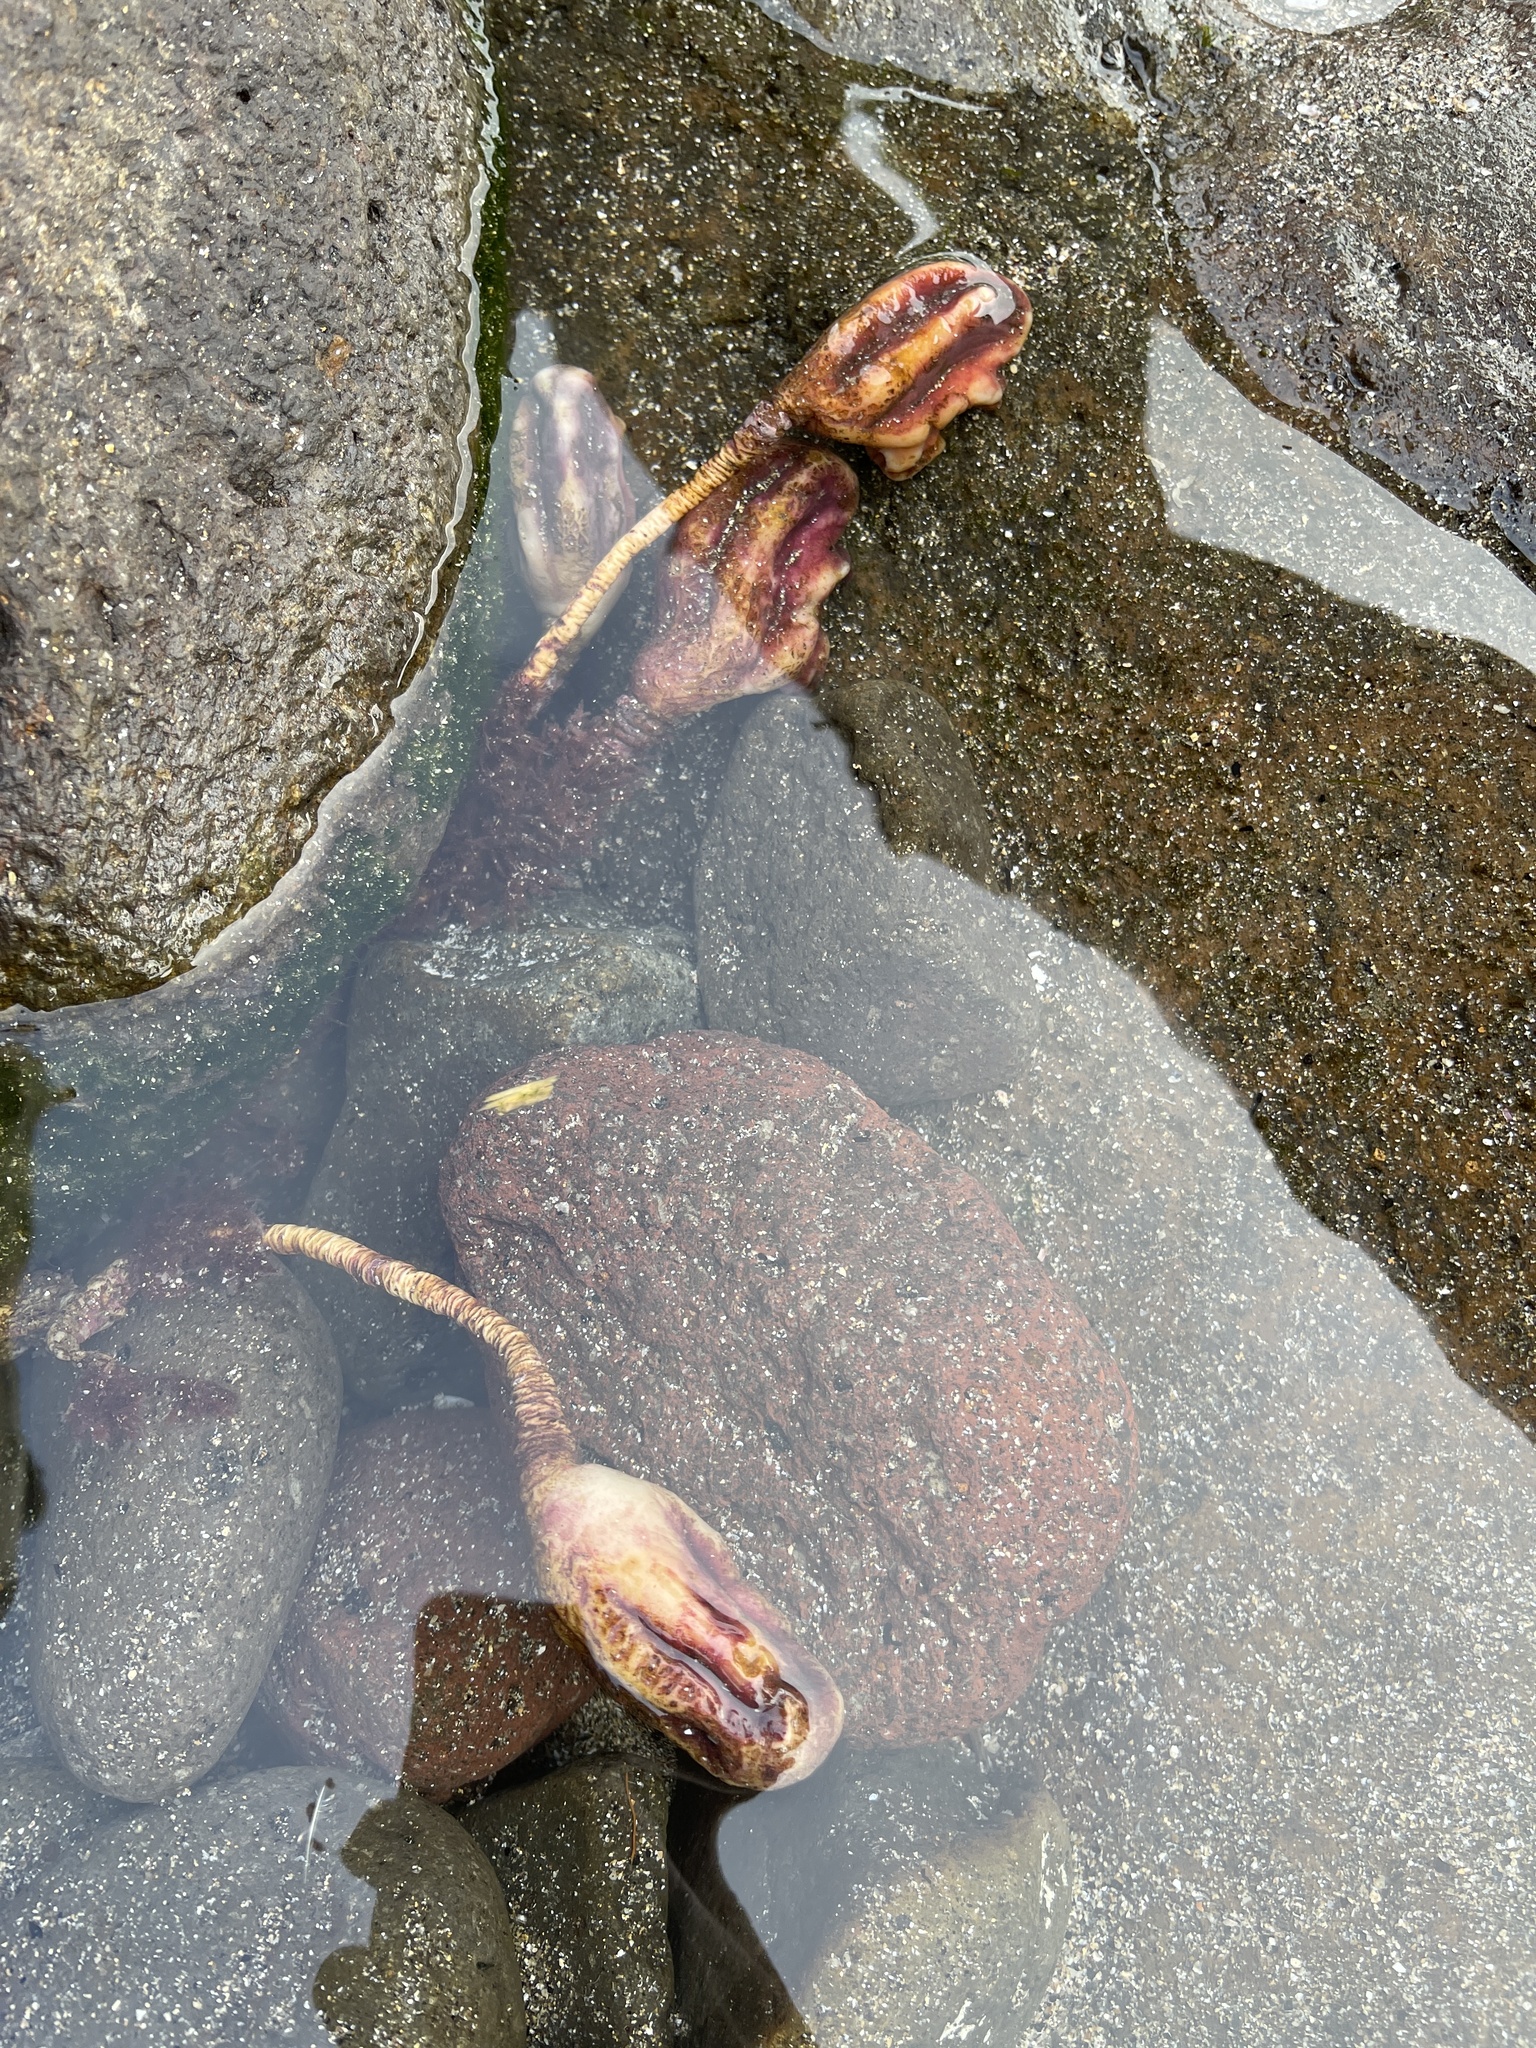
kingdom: Animalia
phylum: Chordata
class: Ascidiacea
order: Stolidobranchia
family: Pyuridae
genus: Pyura
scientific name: Pyura pachydermatina
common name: Sea tulip
